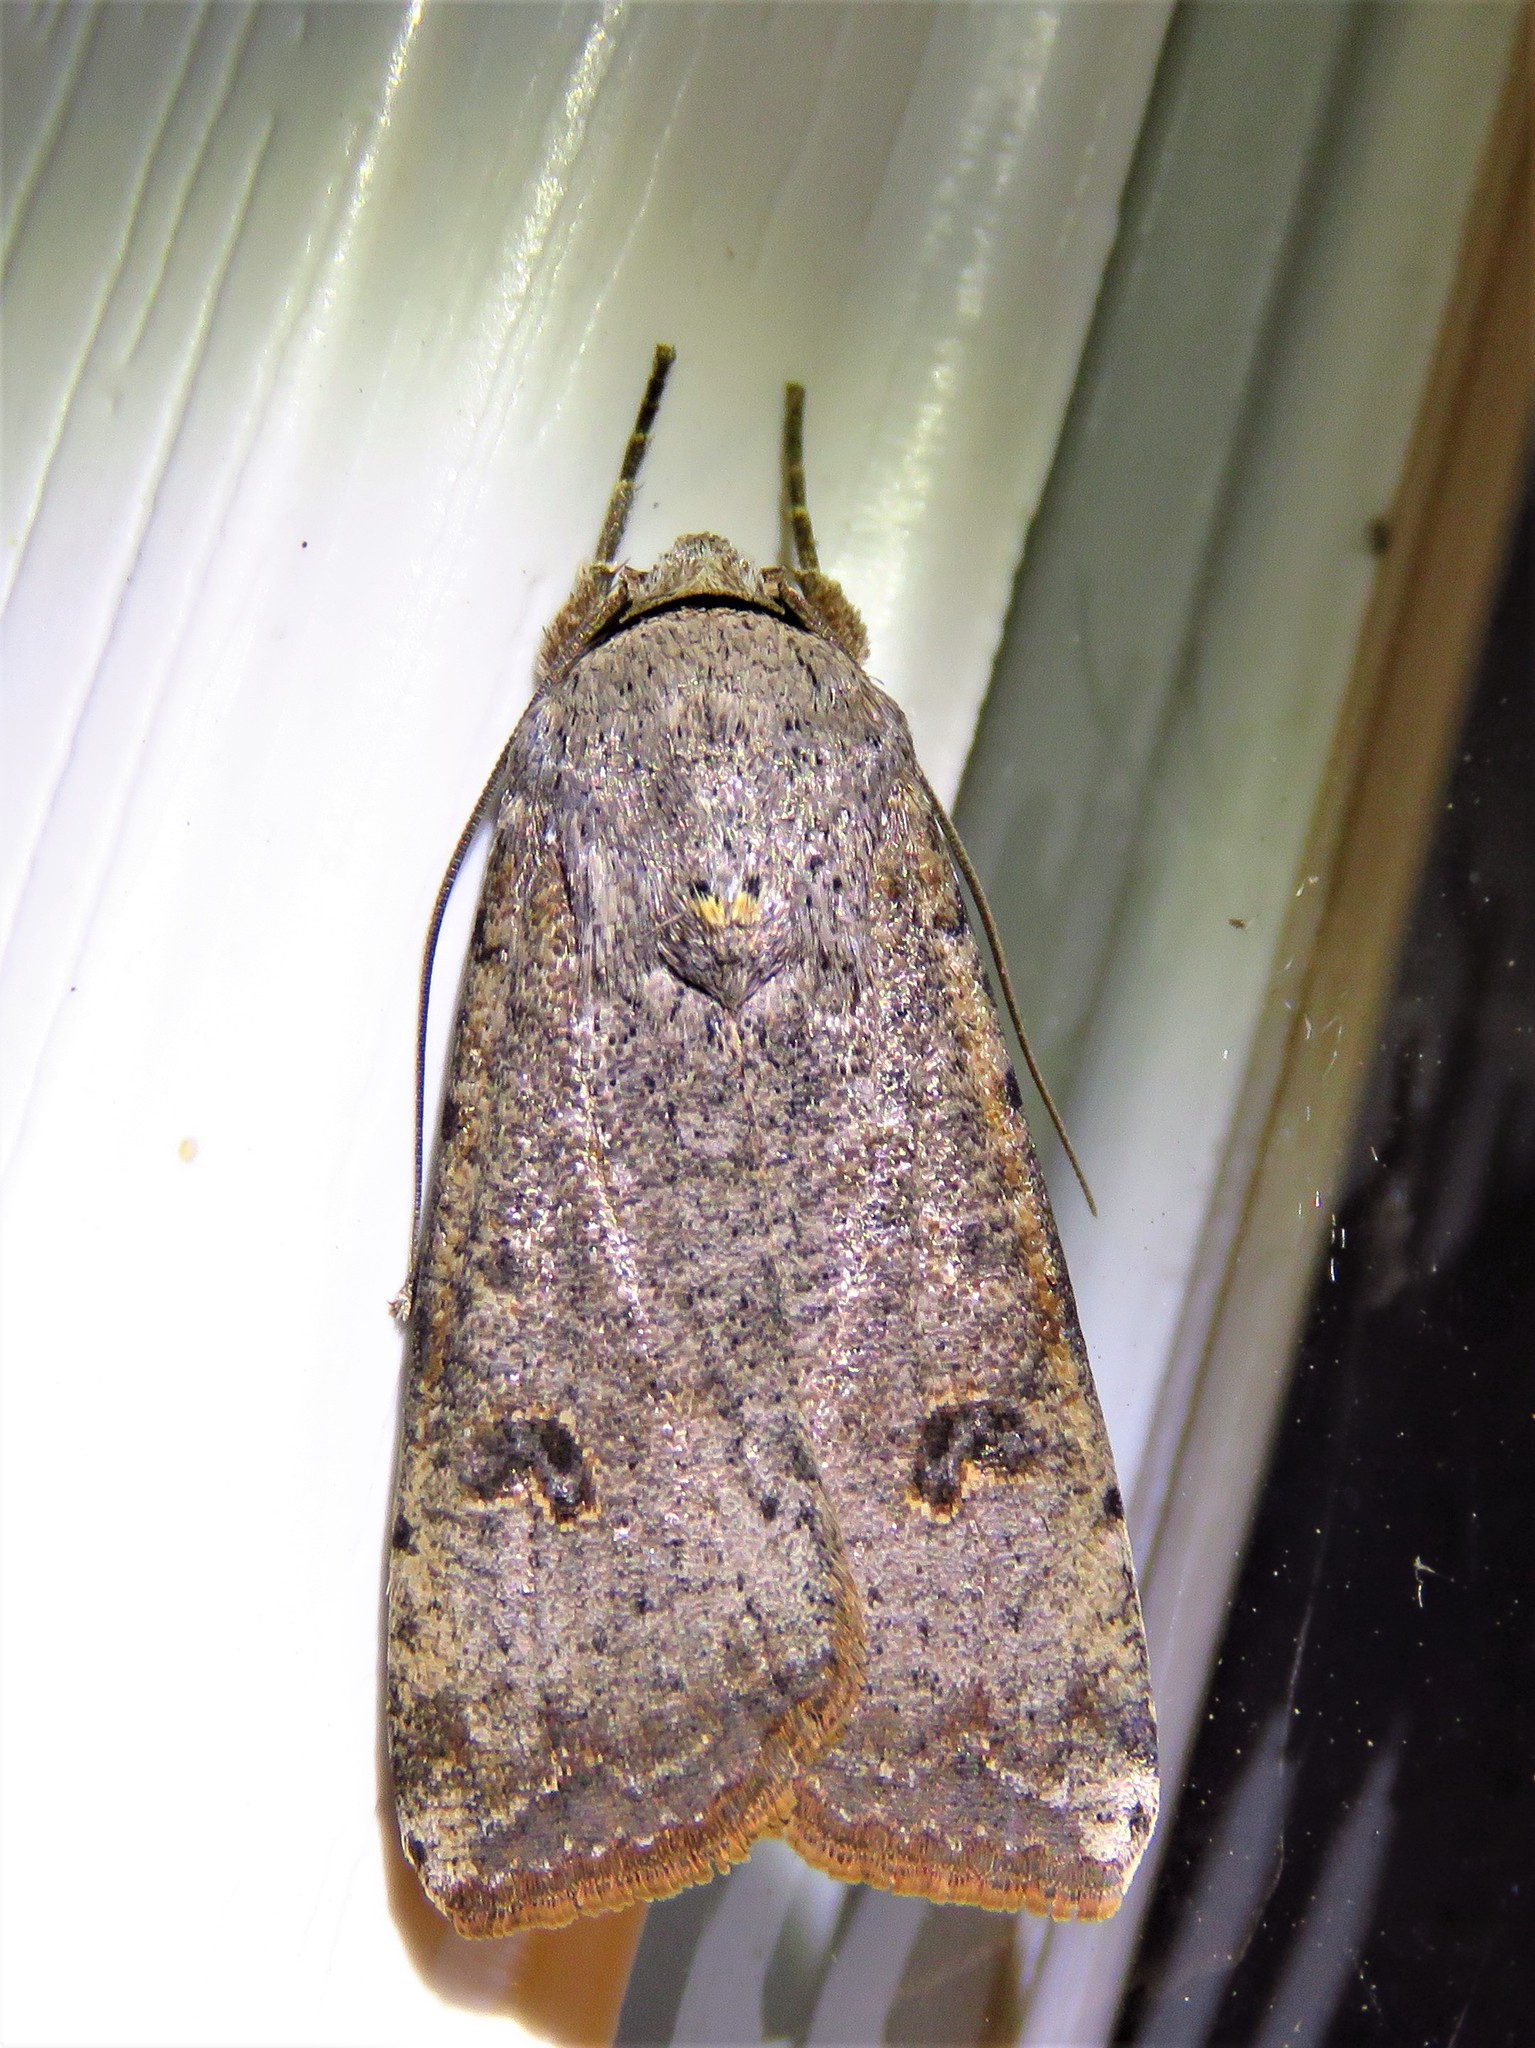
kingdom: Animalia
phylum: Arthropoda
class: Insecta
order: Lepidoptera
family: Noctuidae
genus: Anicla
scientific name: Anicla infecta
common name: Green cutworm
